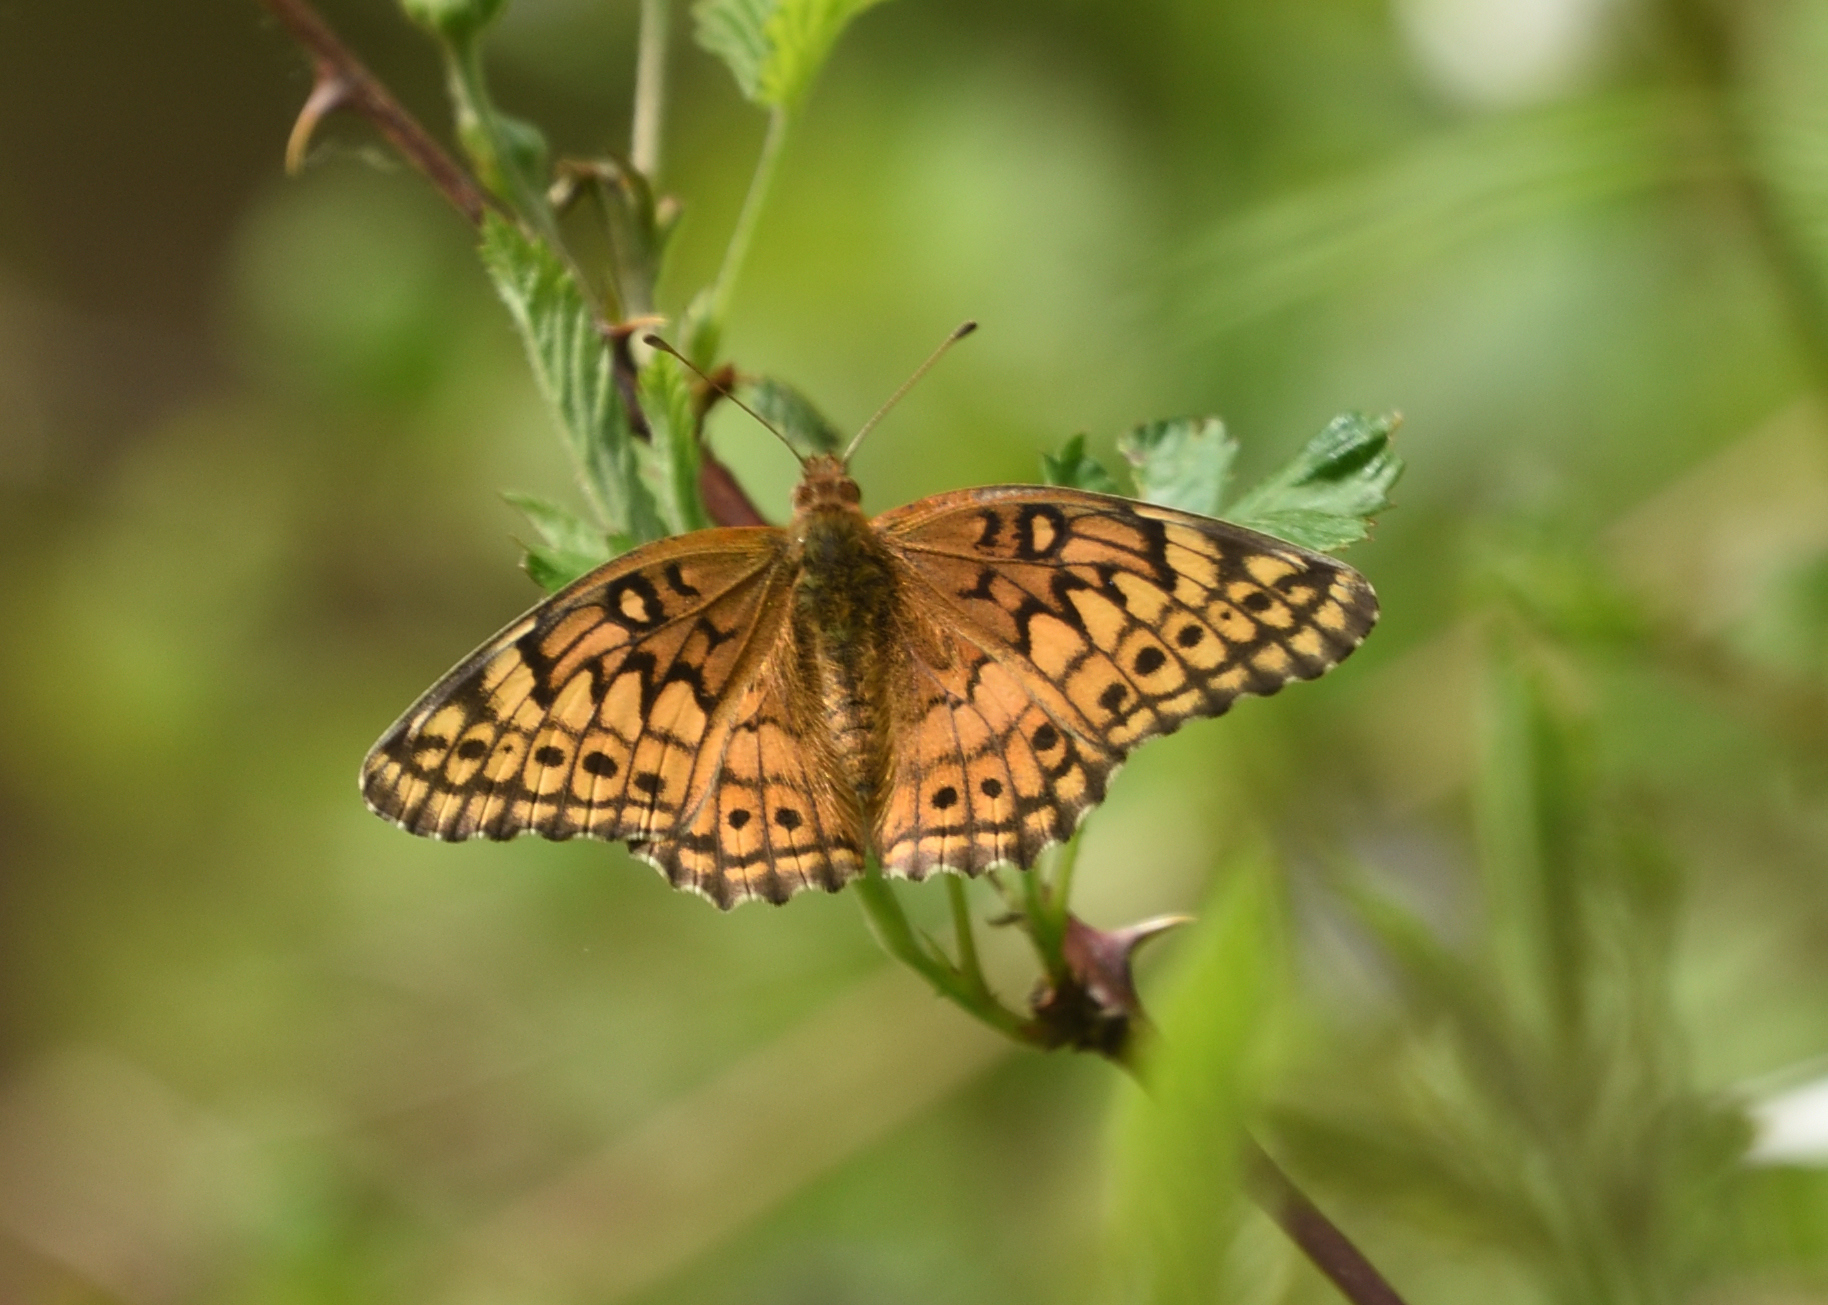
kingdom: Animalia
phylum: Arthropoda
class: Insecta
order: Lepidoptera
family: Nymphalidae
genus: Euptoieta
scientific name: Euptoieta claudia
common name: Variegated fritillary
